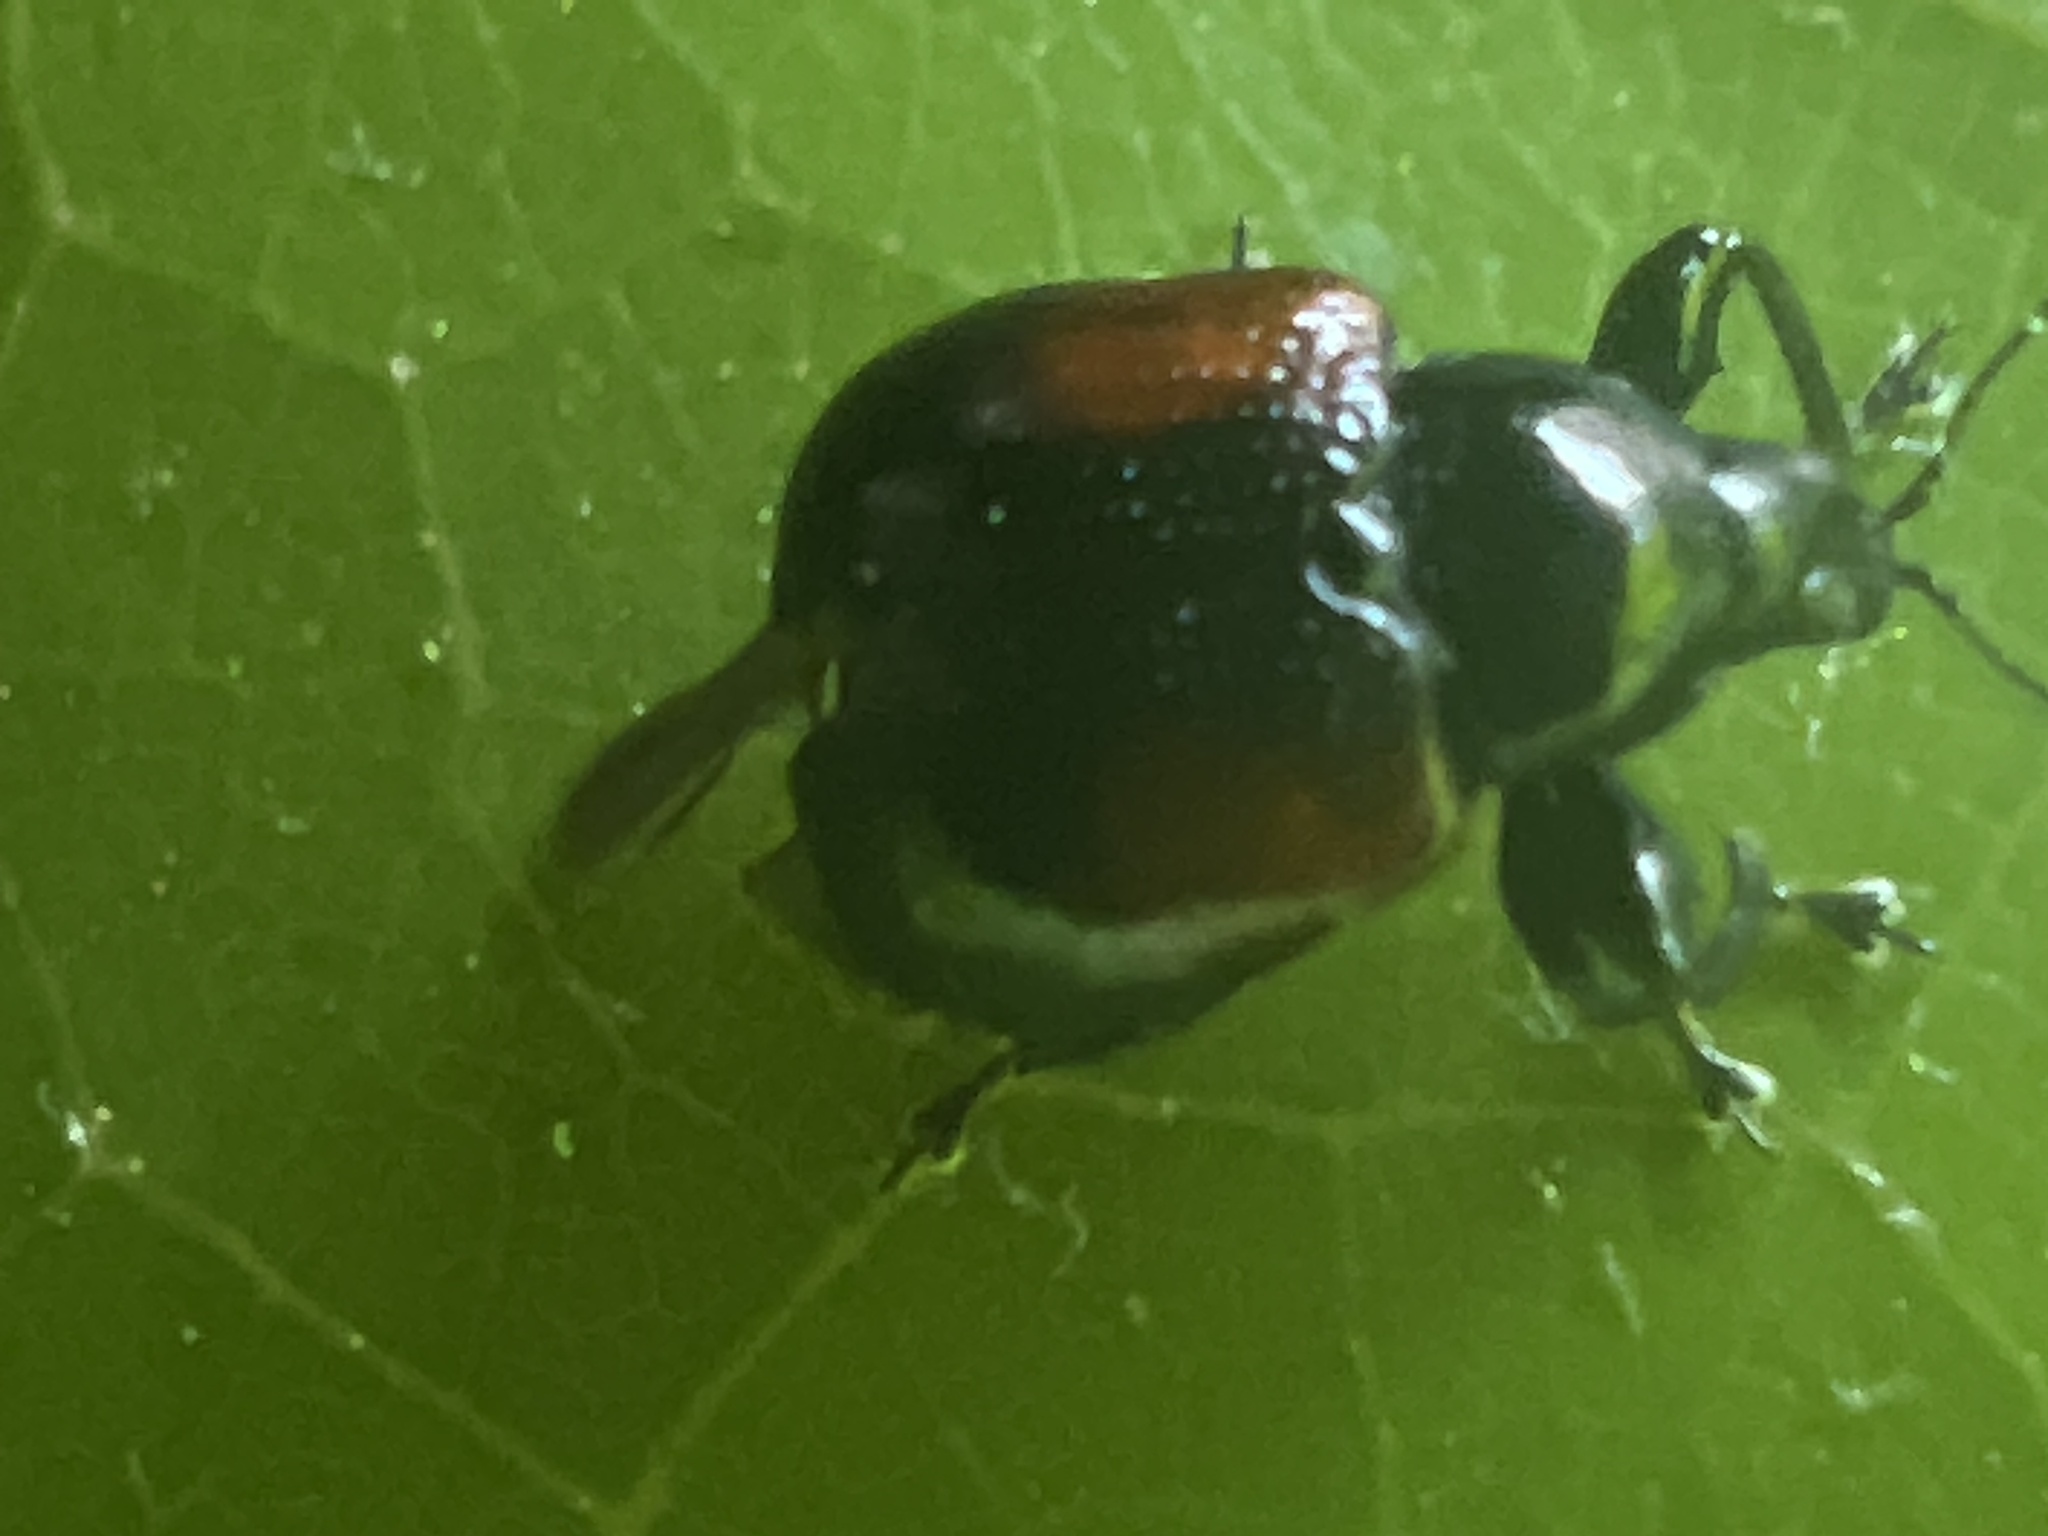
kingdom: Animalia
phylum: Arthropoda
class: Insecta
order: Coleoptera
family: Attelabidae
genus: Attelabus
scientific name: Attelabus bipustulatus
